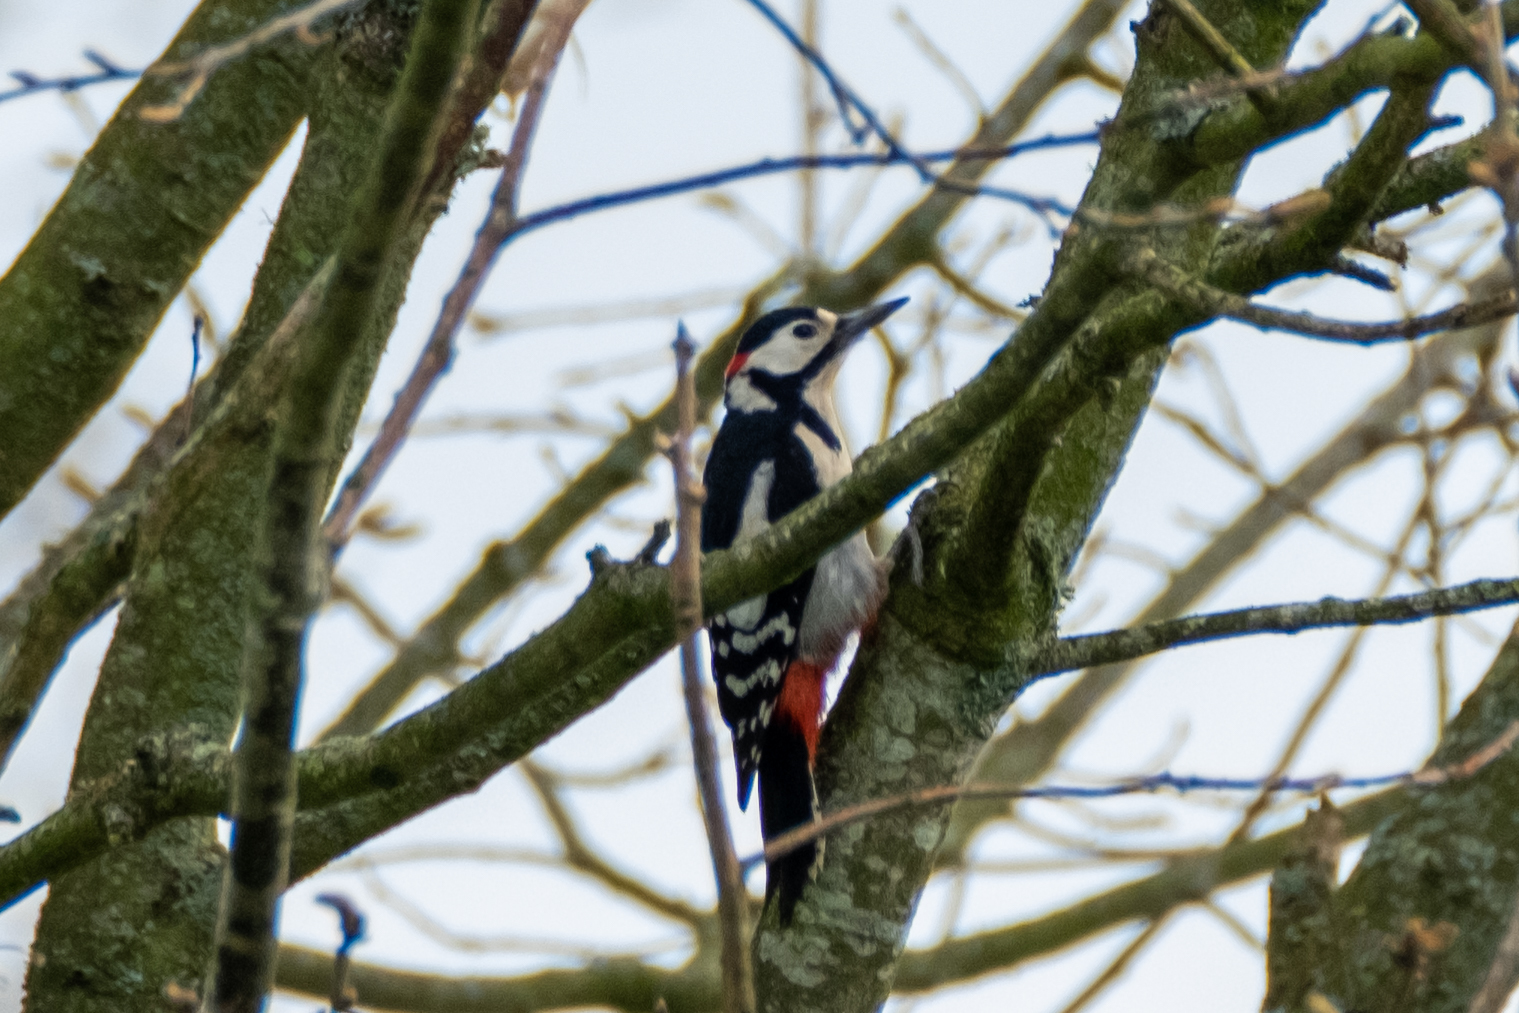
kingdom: Animalia
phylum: Chordata
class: Aves
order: Piciformes
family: Picidae
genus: Dendrocopos
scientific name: Dendrocopos major
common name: Great spotted woodpecker
